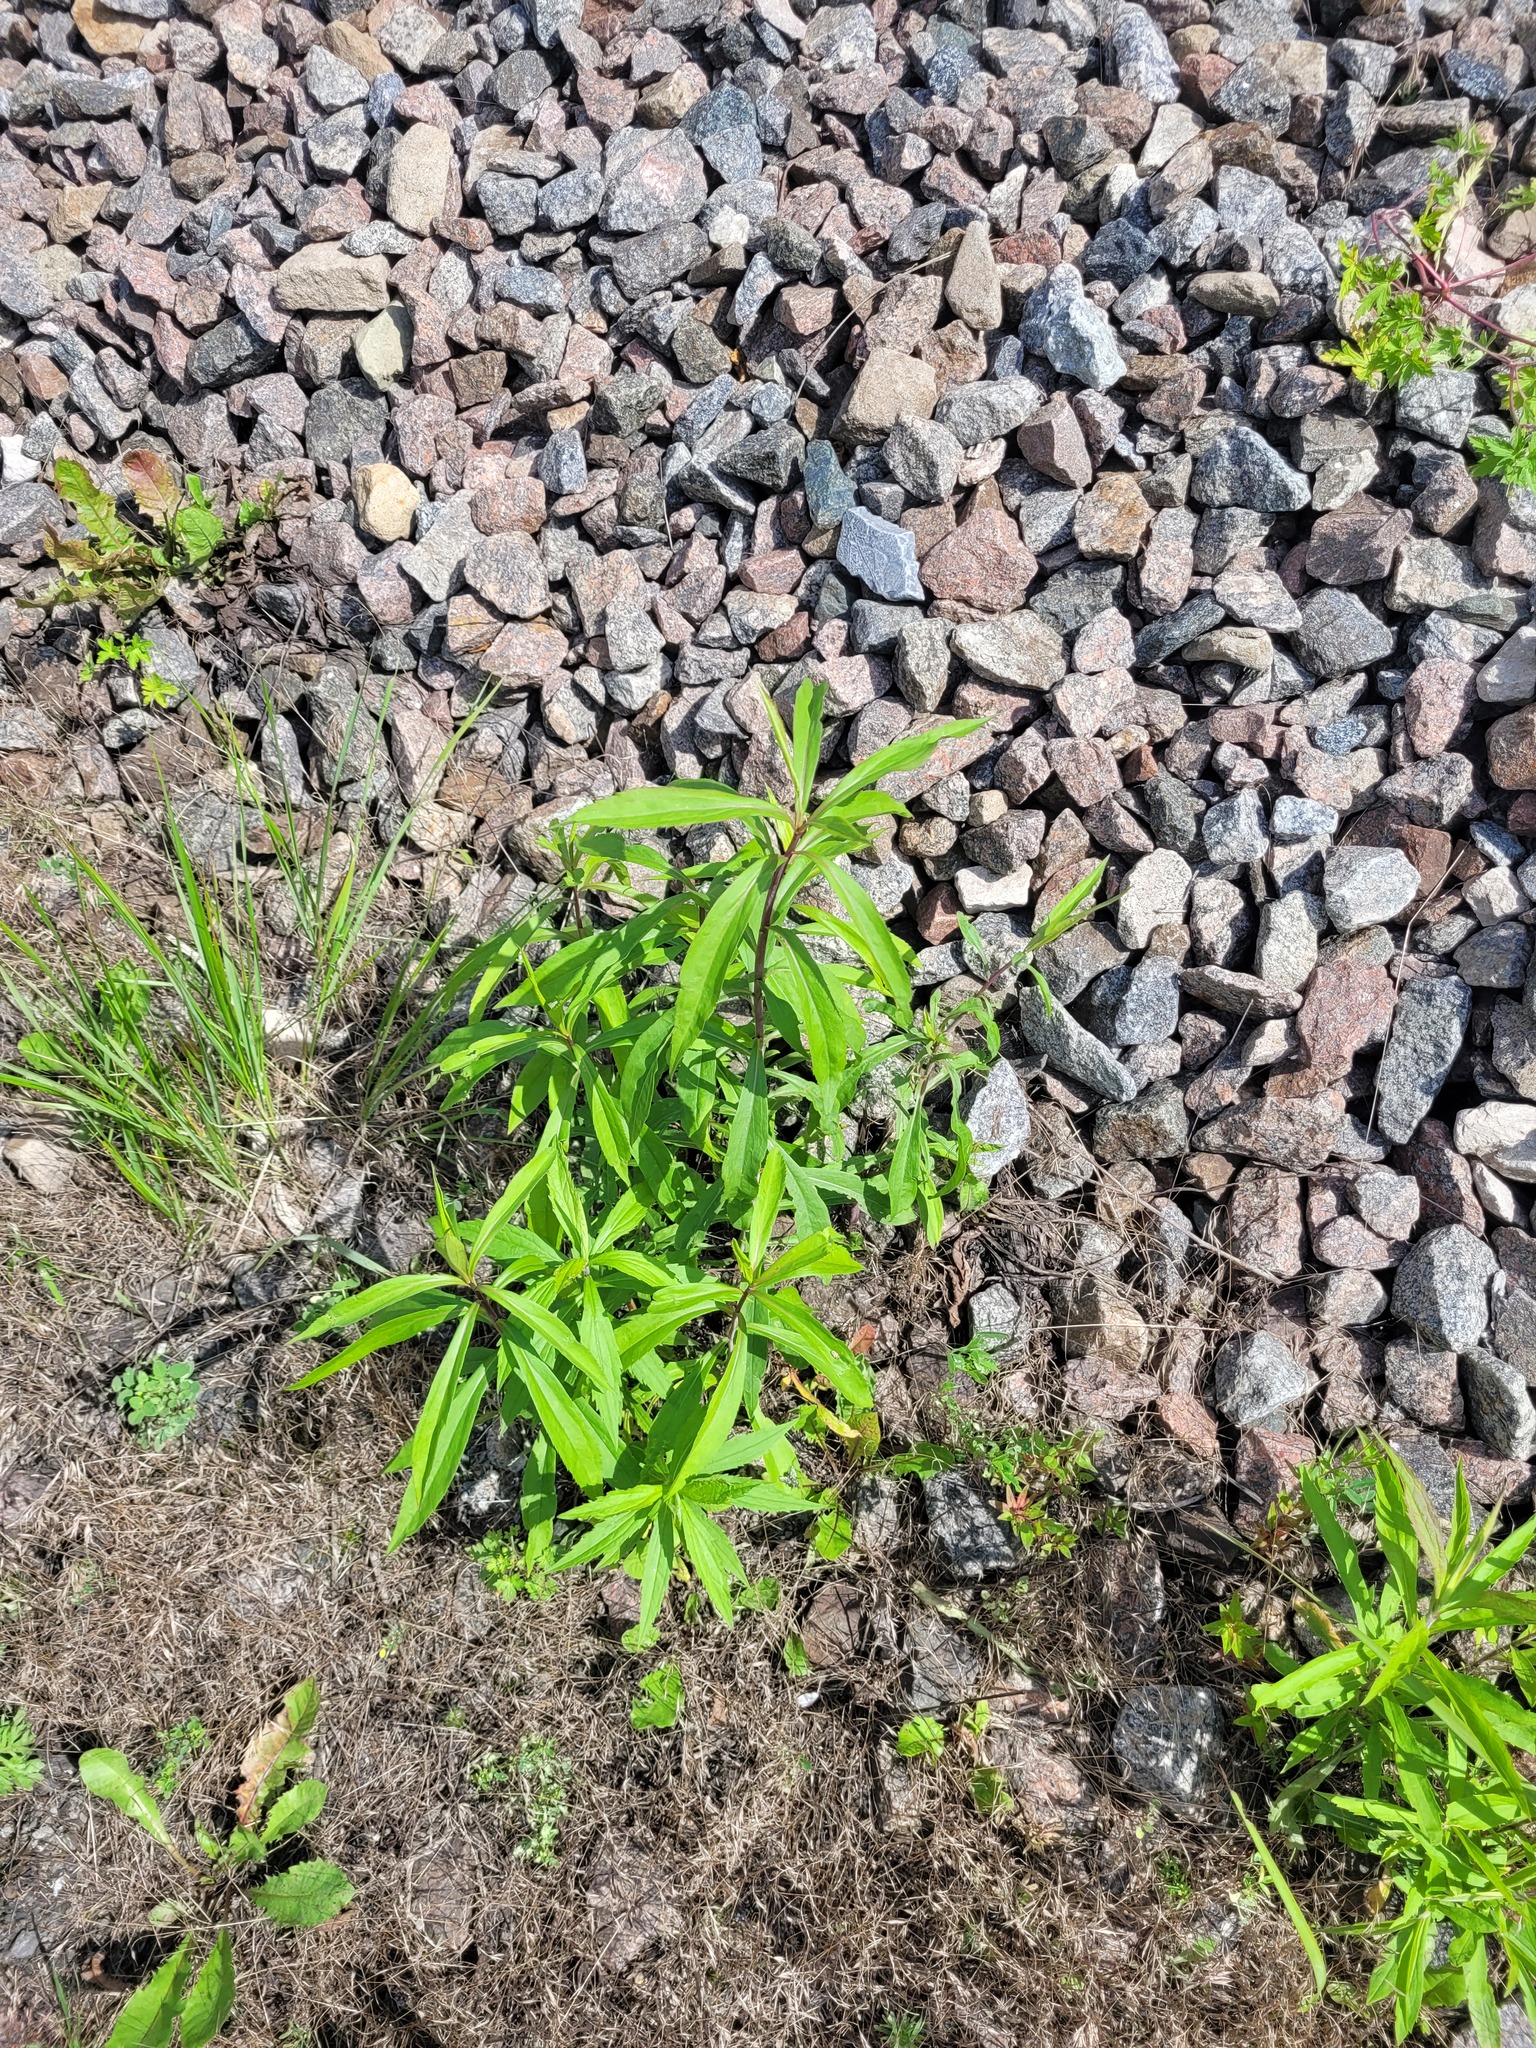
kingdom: Plantae
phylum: Tracheophyta
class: Magnoliopsida
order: Asterales
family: Asteraceae
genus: Solidago
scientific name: Solidago gigantea
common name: Giant goldenrod
